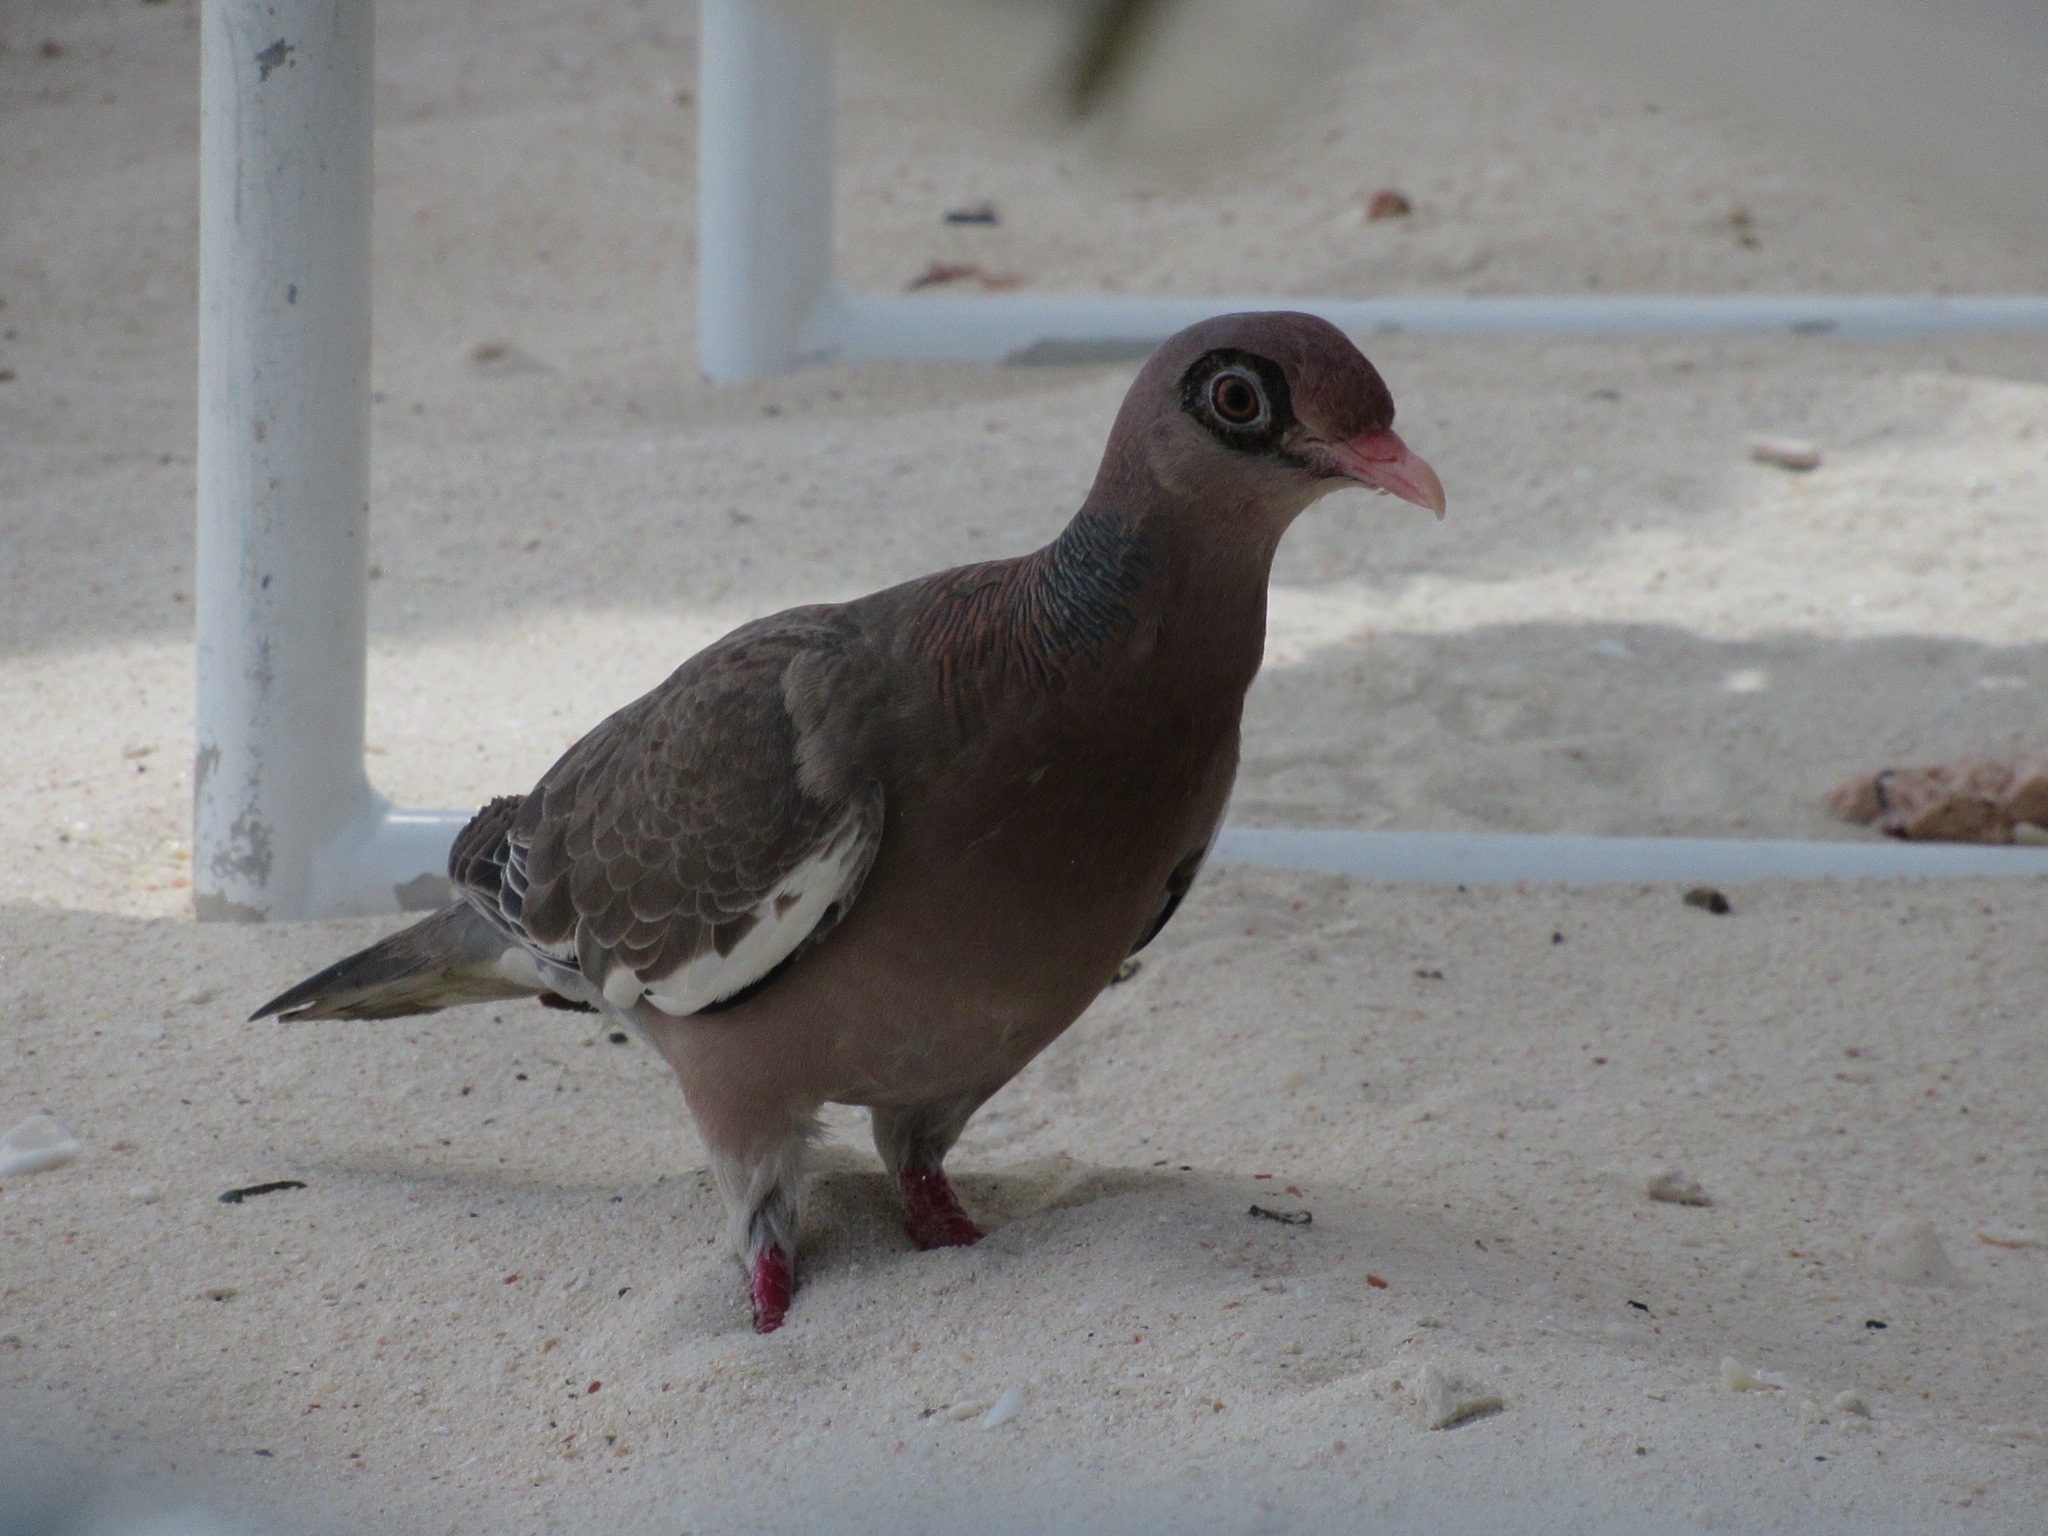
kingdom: Animalia
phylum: Chordata
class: Aves
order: Columbiformes
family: Columbidae
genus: Patagioenas
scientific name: Patagioenas corensis
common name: Bare-eyed pigeon
